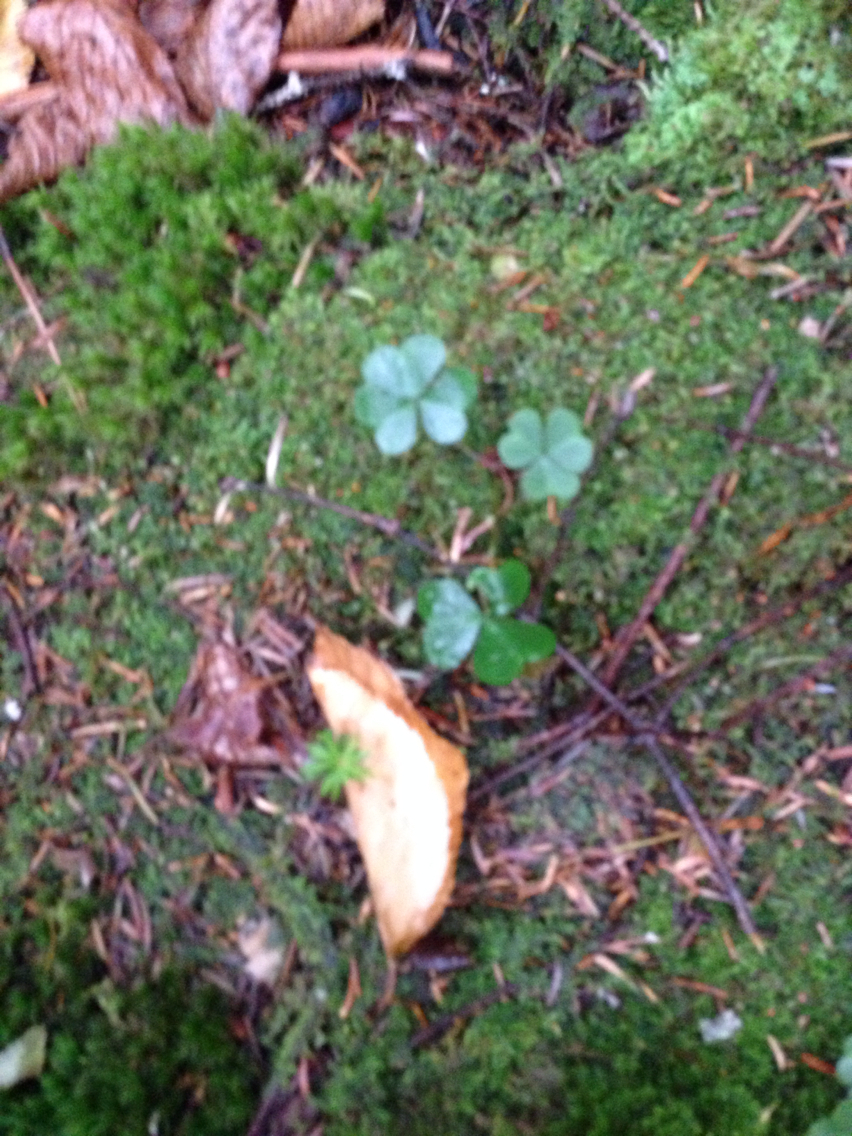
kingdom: Plantae
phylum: Tracheophyta
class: Magnoliopsida
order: Oxalidales
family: Oxalidaceae
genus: Oxalis
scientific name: Oxalis montana
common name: American wood-sorrel
